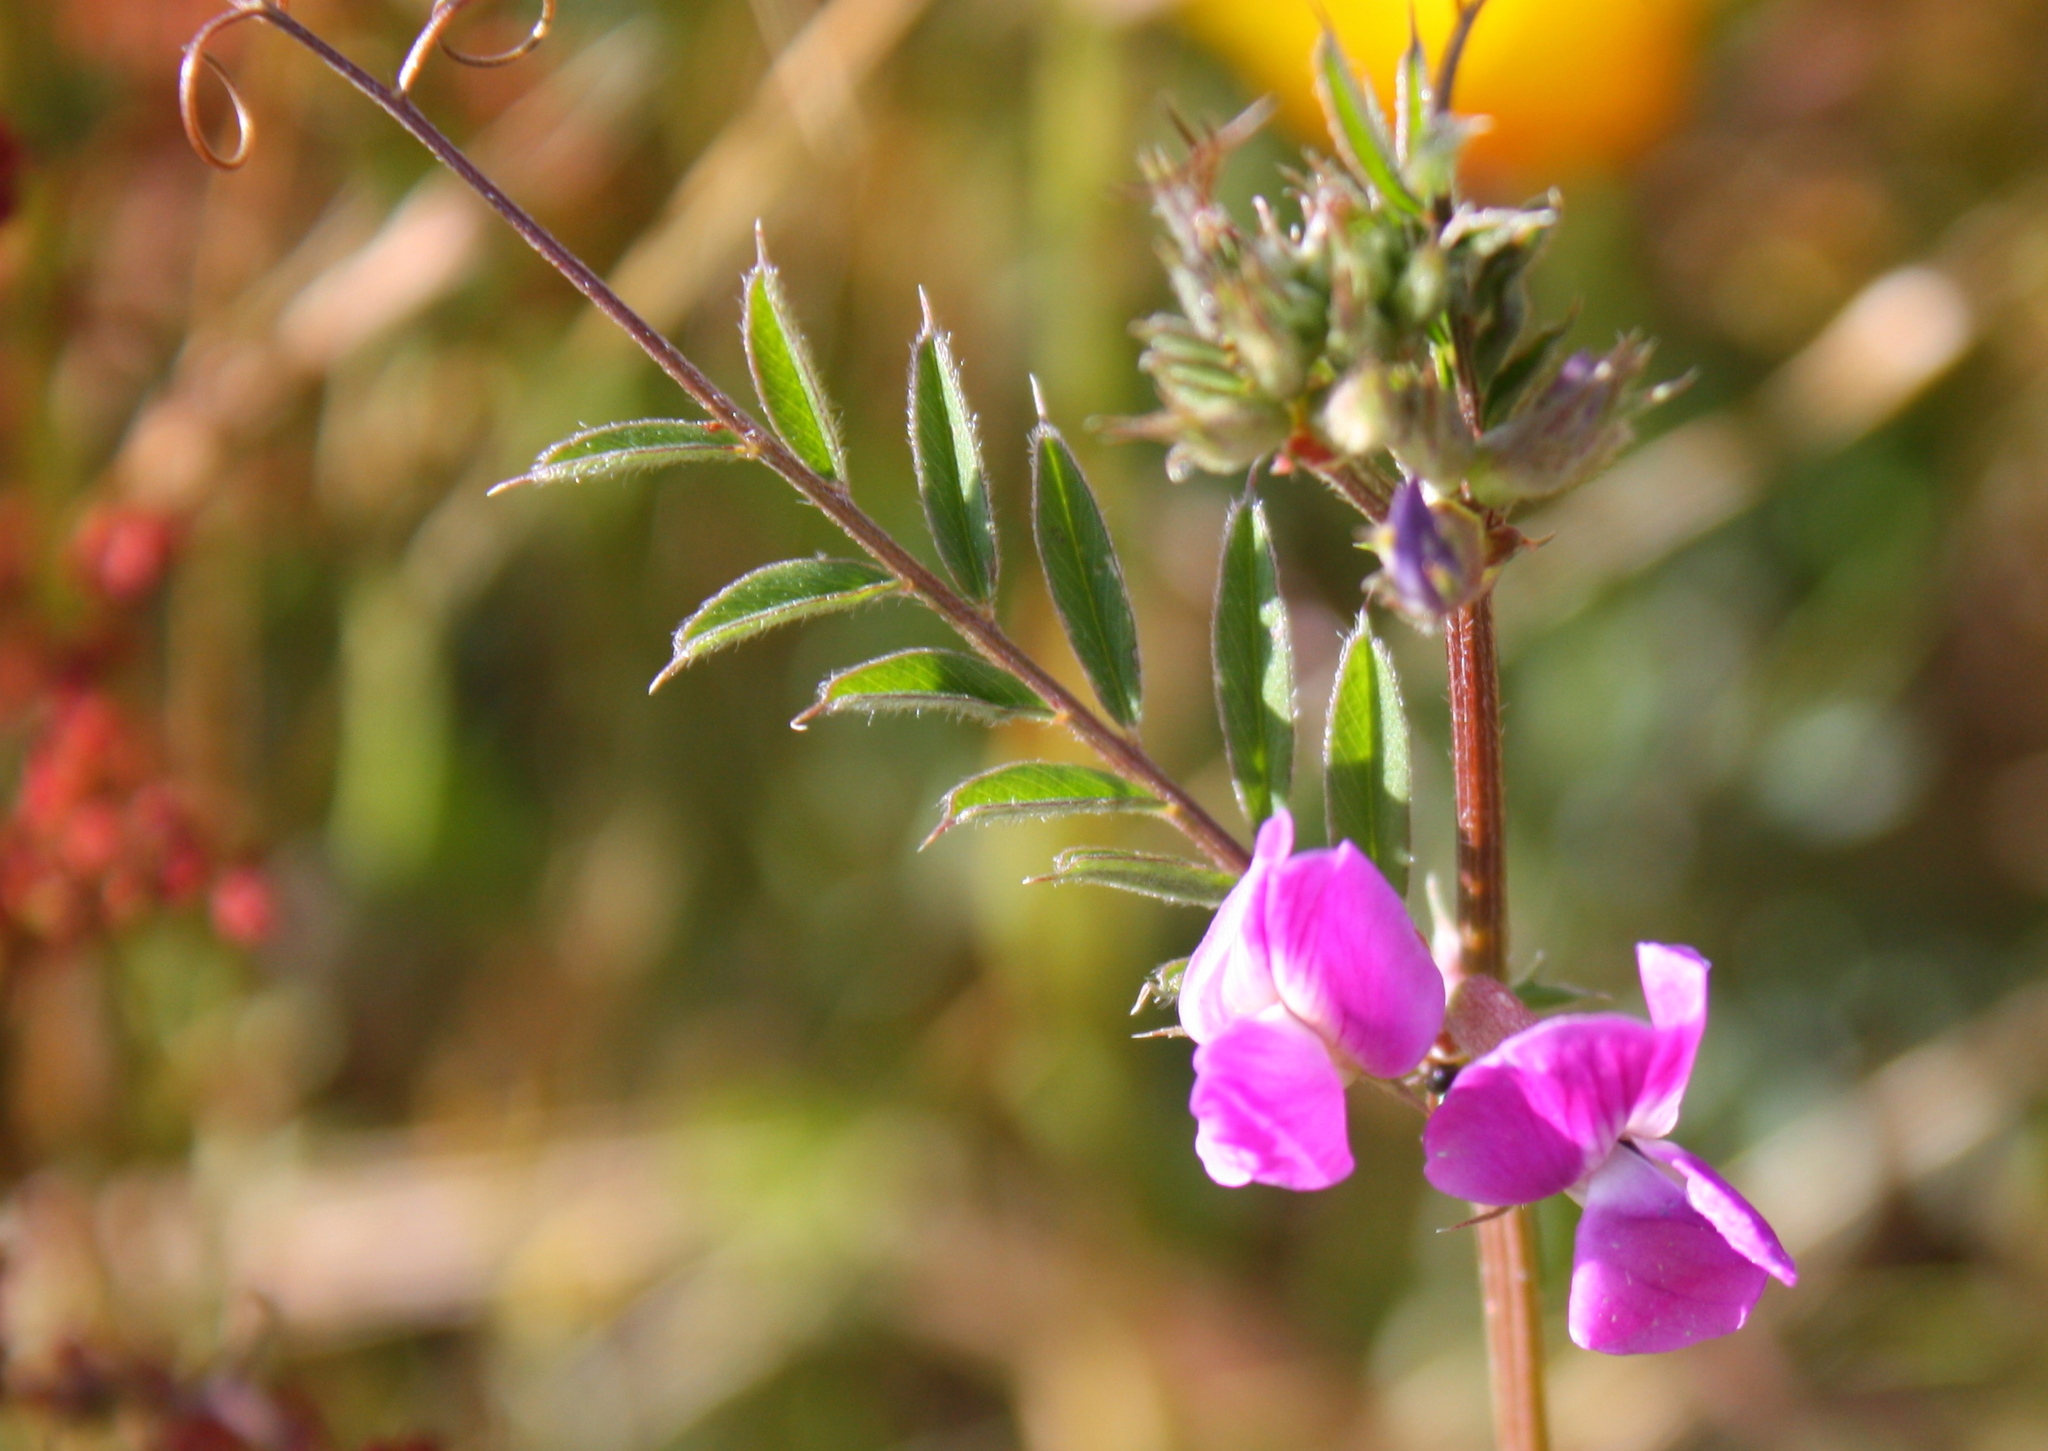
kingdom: Plantae
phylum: Tracheophyta
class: Magnoliopsida
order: Fabales
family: Fabaceae
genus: Vicia
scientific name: Vicia sativa
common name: Garden vetch
